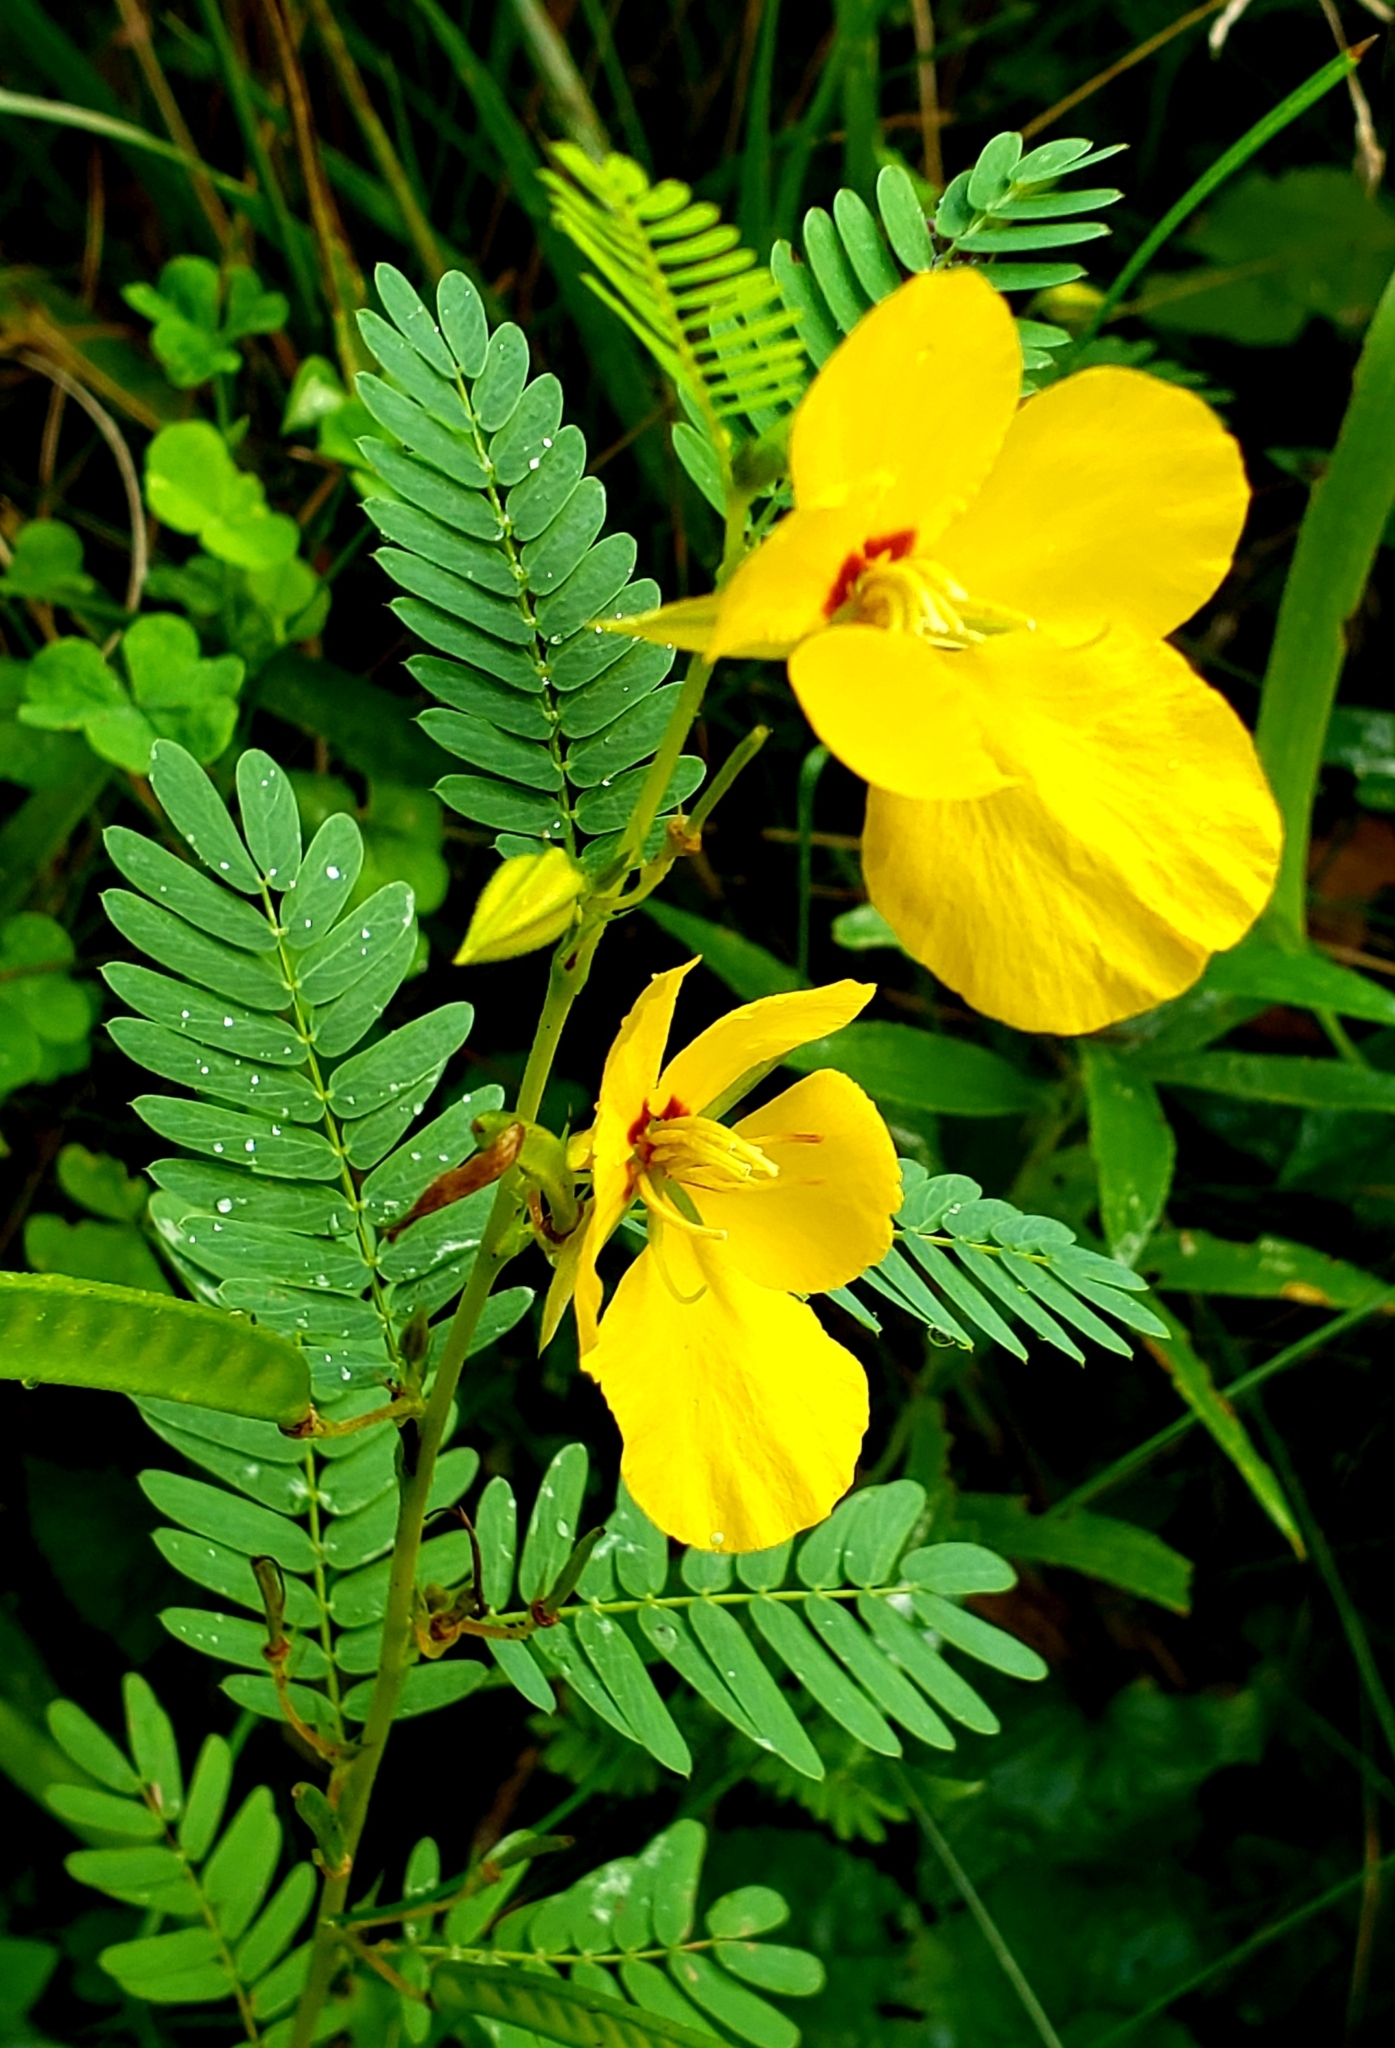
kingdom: Plantae
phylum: Tracheophyta
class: Magnoliopsida
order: Fabales
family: Fabaceae
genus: Chamaecrista
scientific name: Chamaecrista fasciculata
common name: Golden cassia
